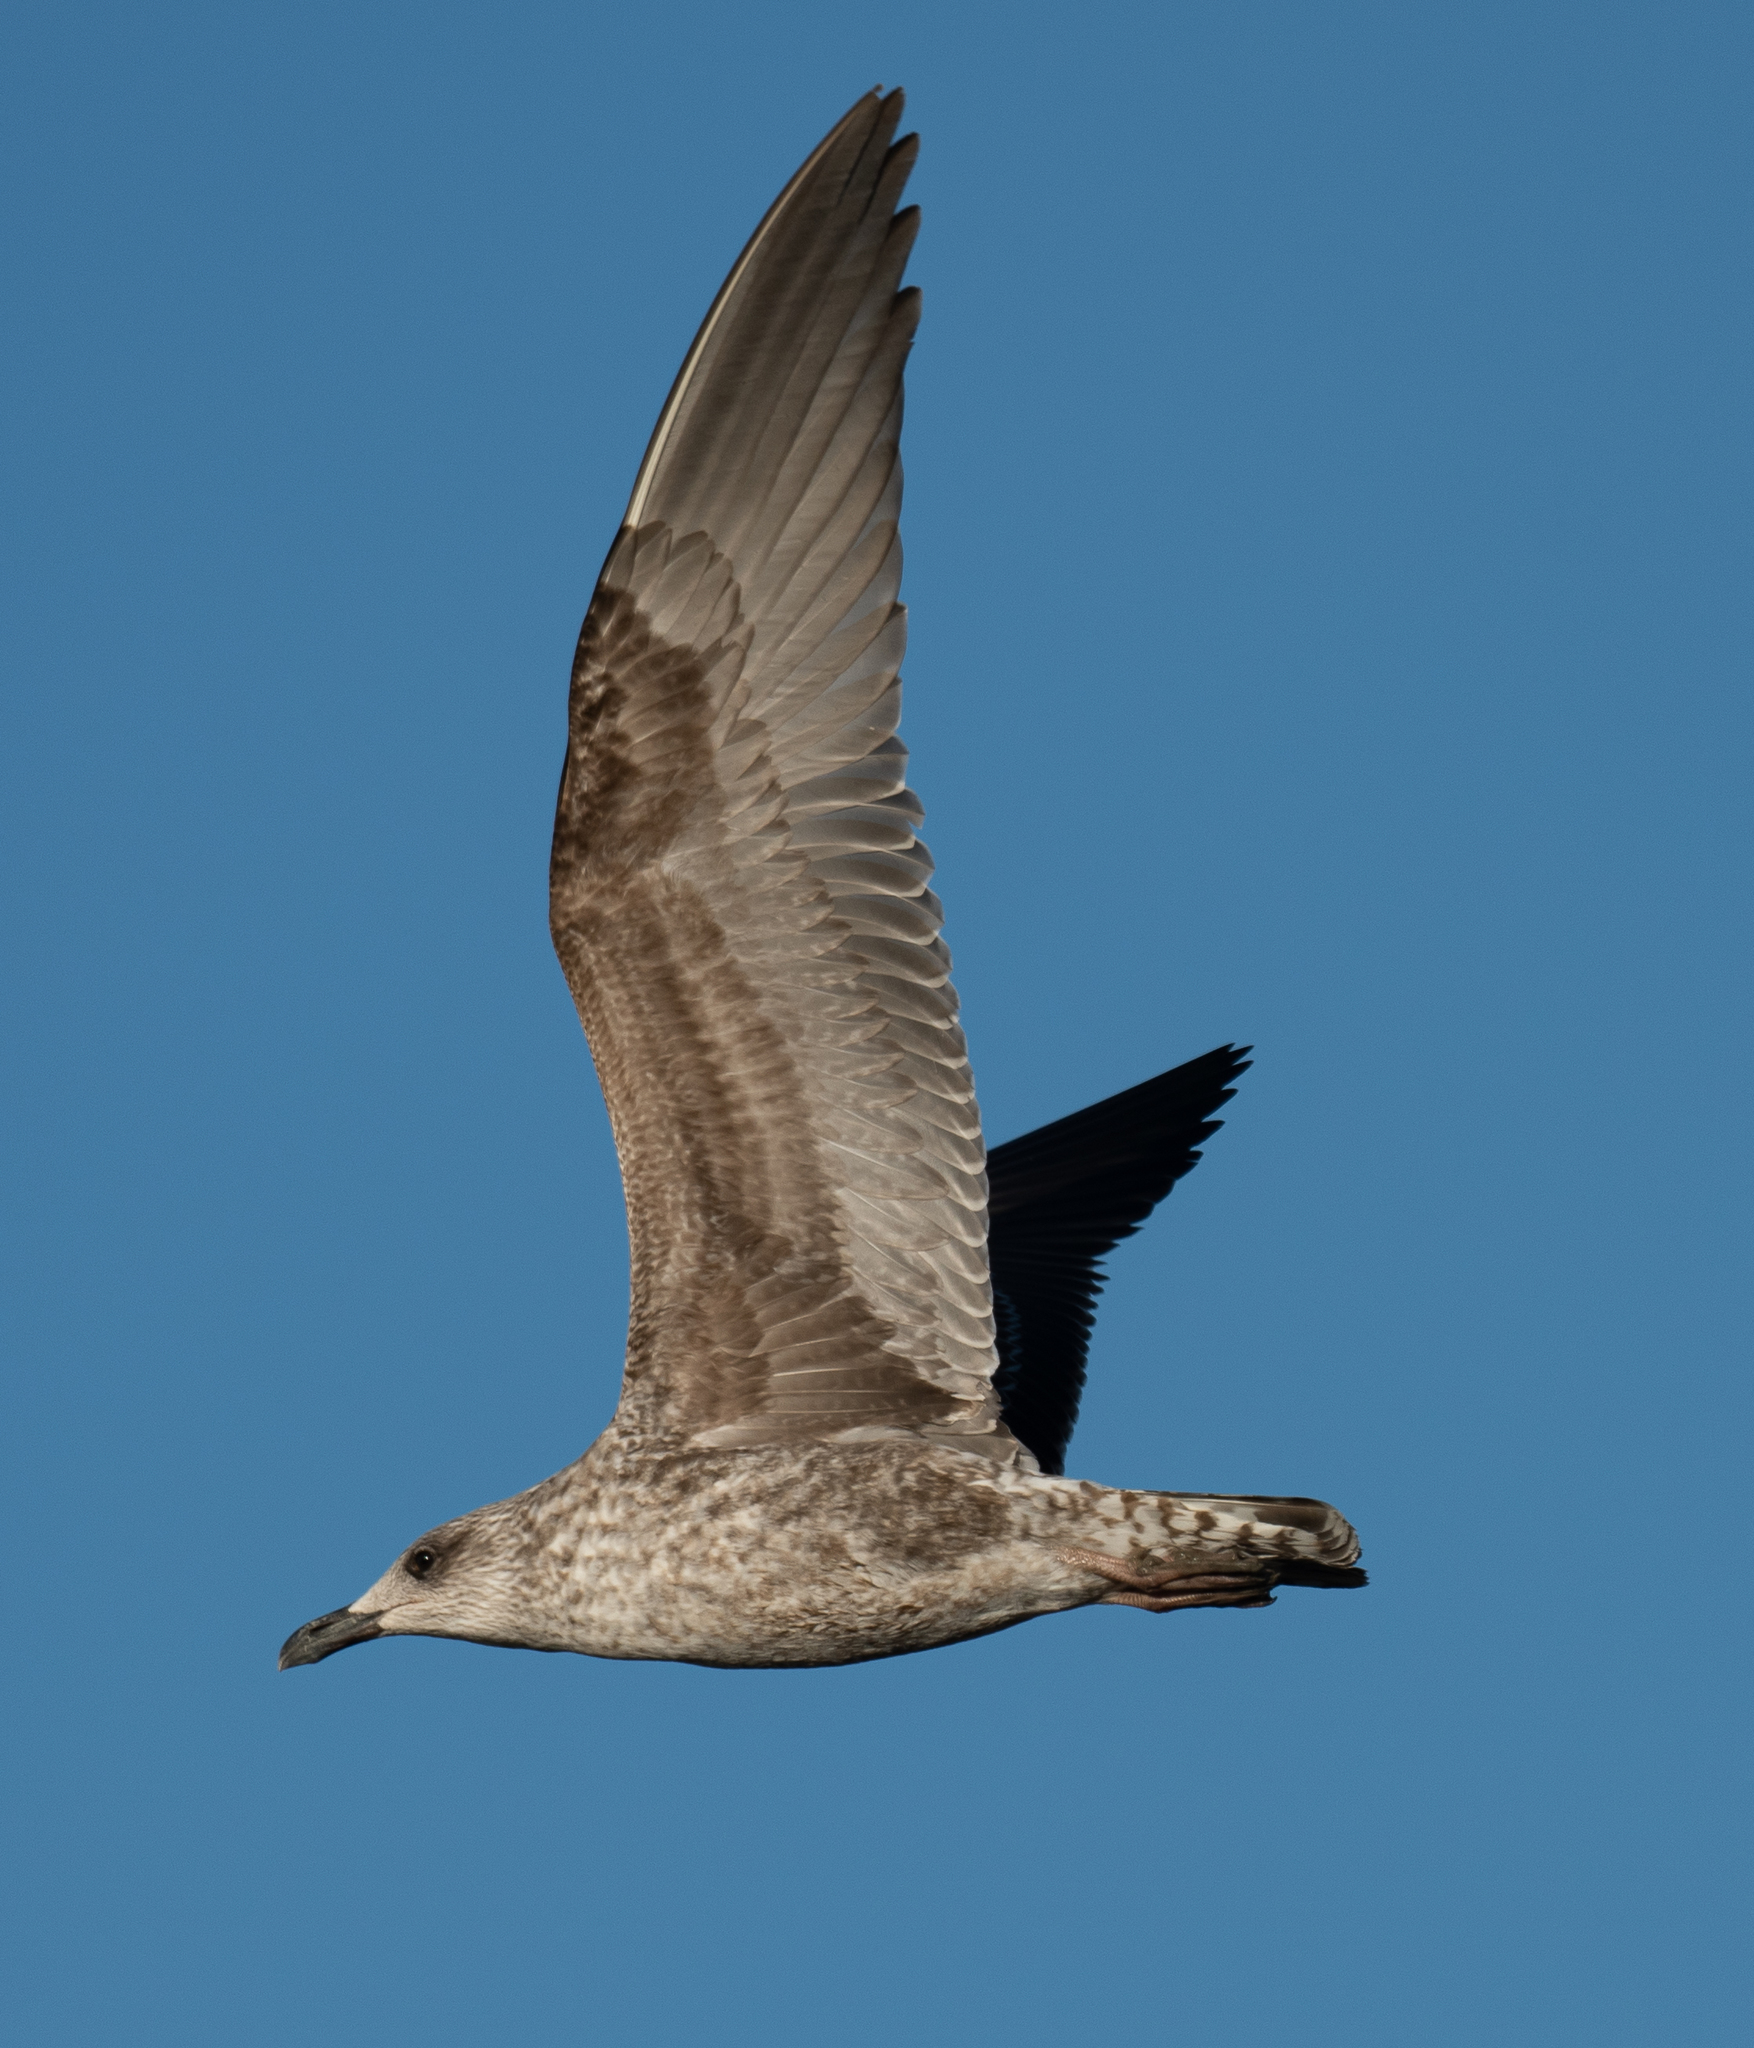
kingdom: Animalia
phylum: Chordata
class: Aves
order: Charadriiformes
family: Laridae
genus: Larus
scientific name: Larus fuscus
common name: Lesser black-backed gull
